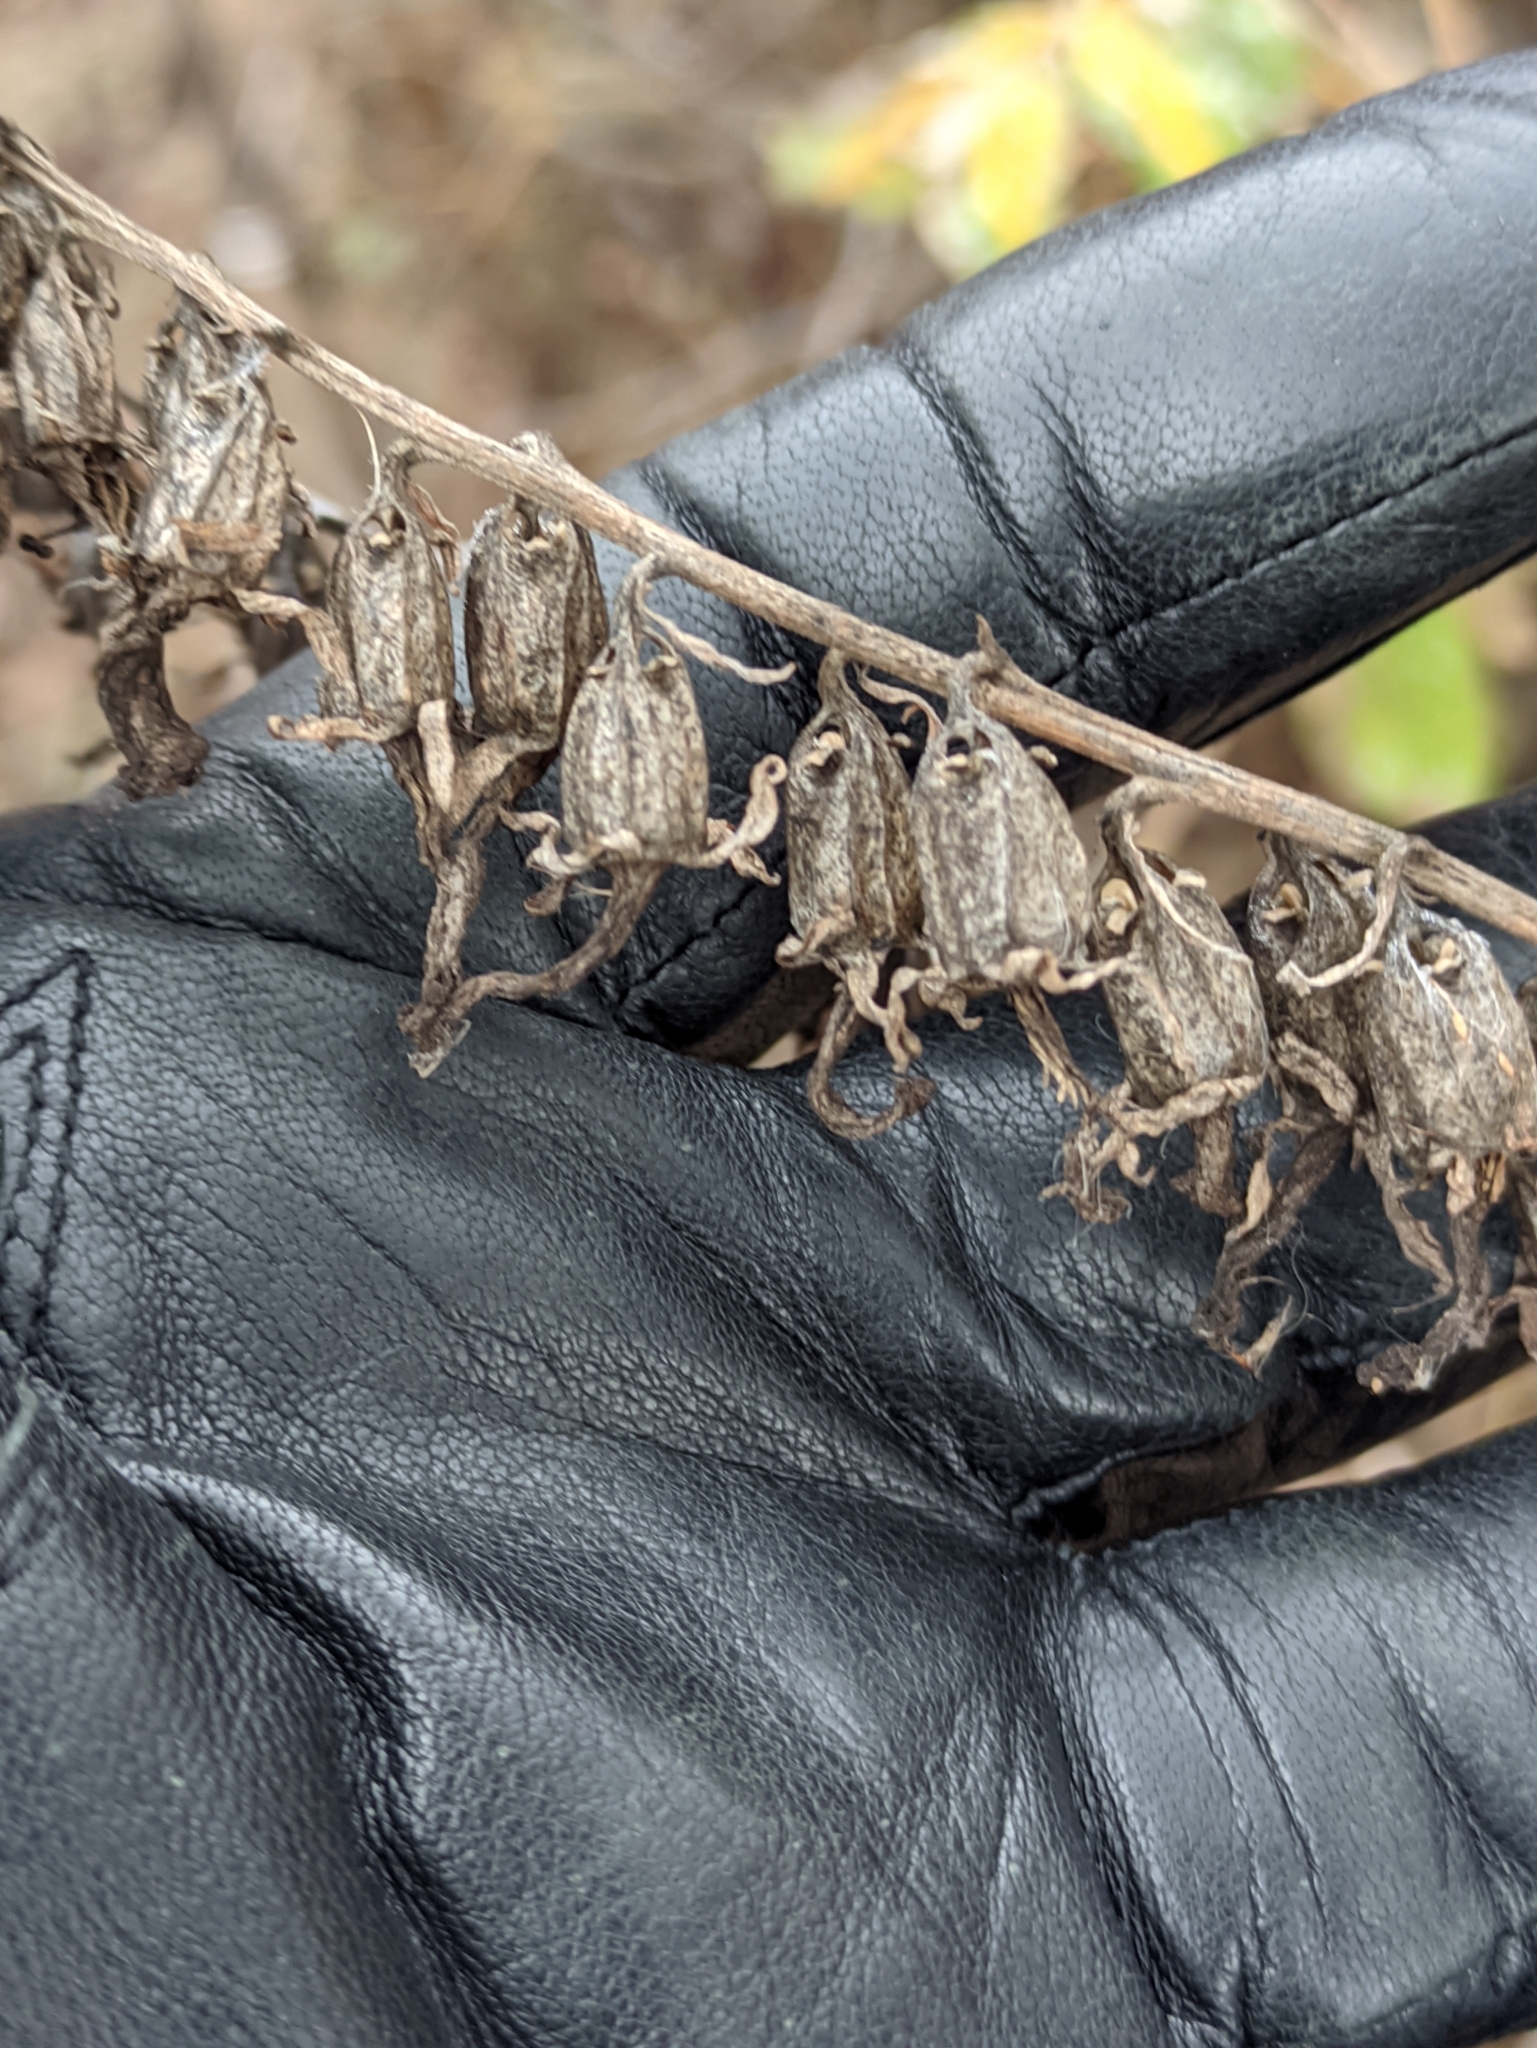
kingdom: Plantae
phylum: Tracheophyta
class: Magnoliopsida
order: Asterales
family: Campanulaceae
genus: Campanula
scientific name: Campanula rapunculoides
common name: Creeping bellflower
